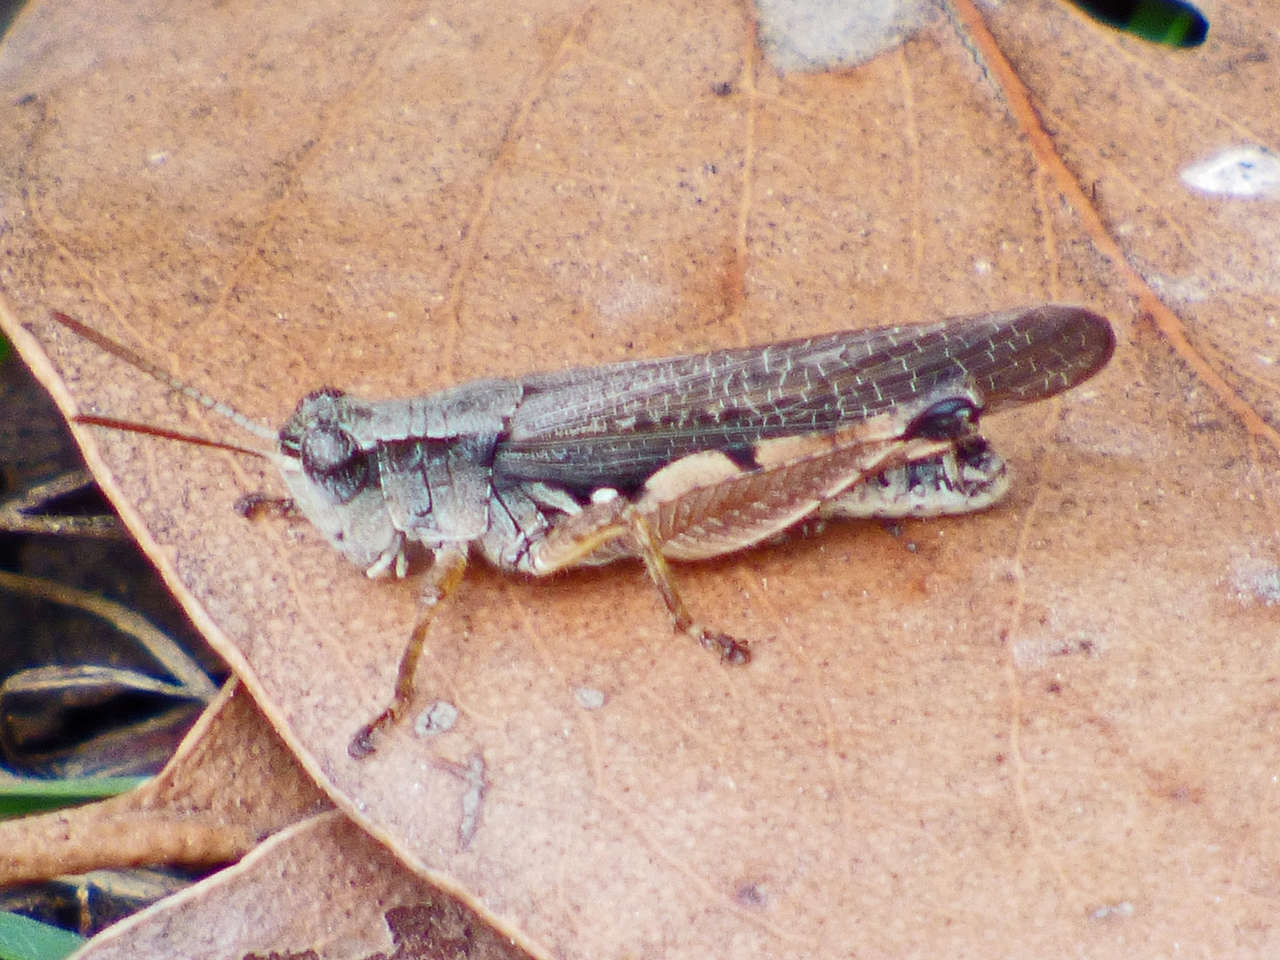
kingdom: Animalia
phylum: Arthropoda
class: Insecta
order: Orthoptera
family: Acrididae
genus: Phaulacridium
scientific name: Phaulacridium vittatum
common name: Wingless grasshopper
